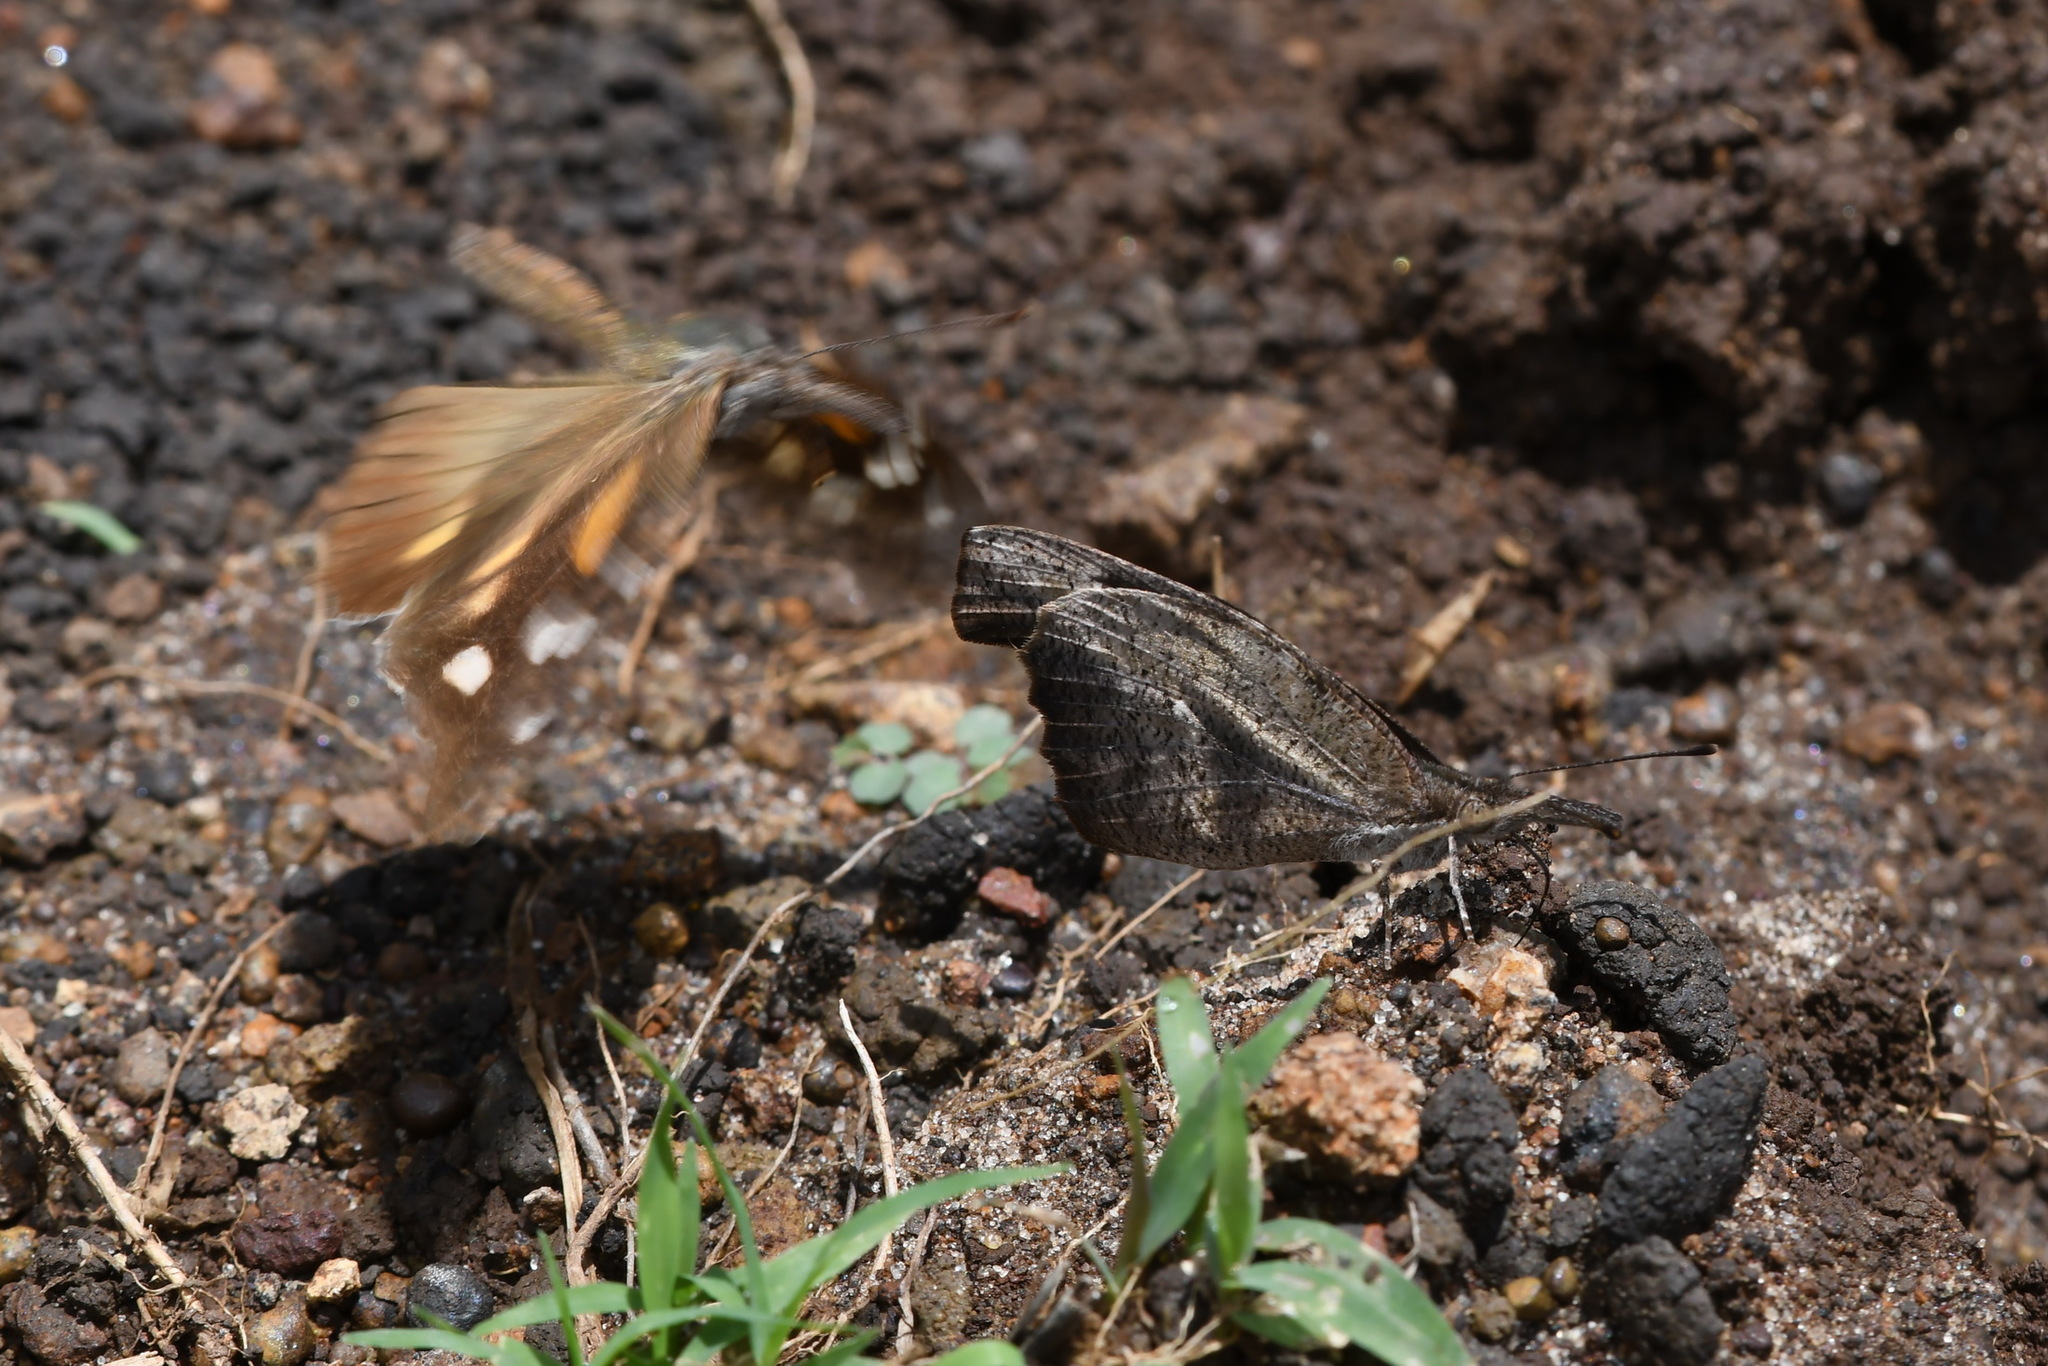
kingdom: Animalia
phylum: Arthropoda
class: Insecta
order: Lepidoptera
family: Nymphalidae
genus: Libytheana
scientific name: Libytheana carinenta
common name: American snout
